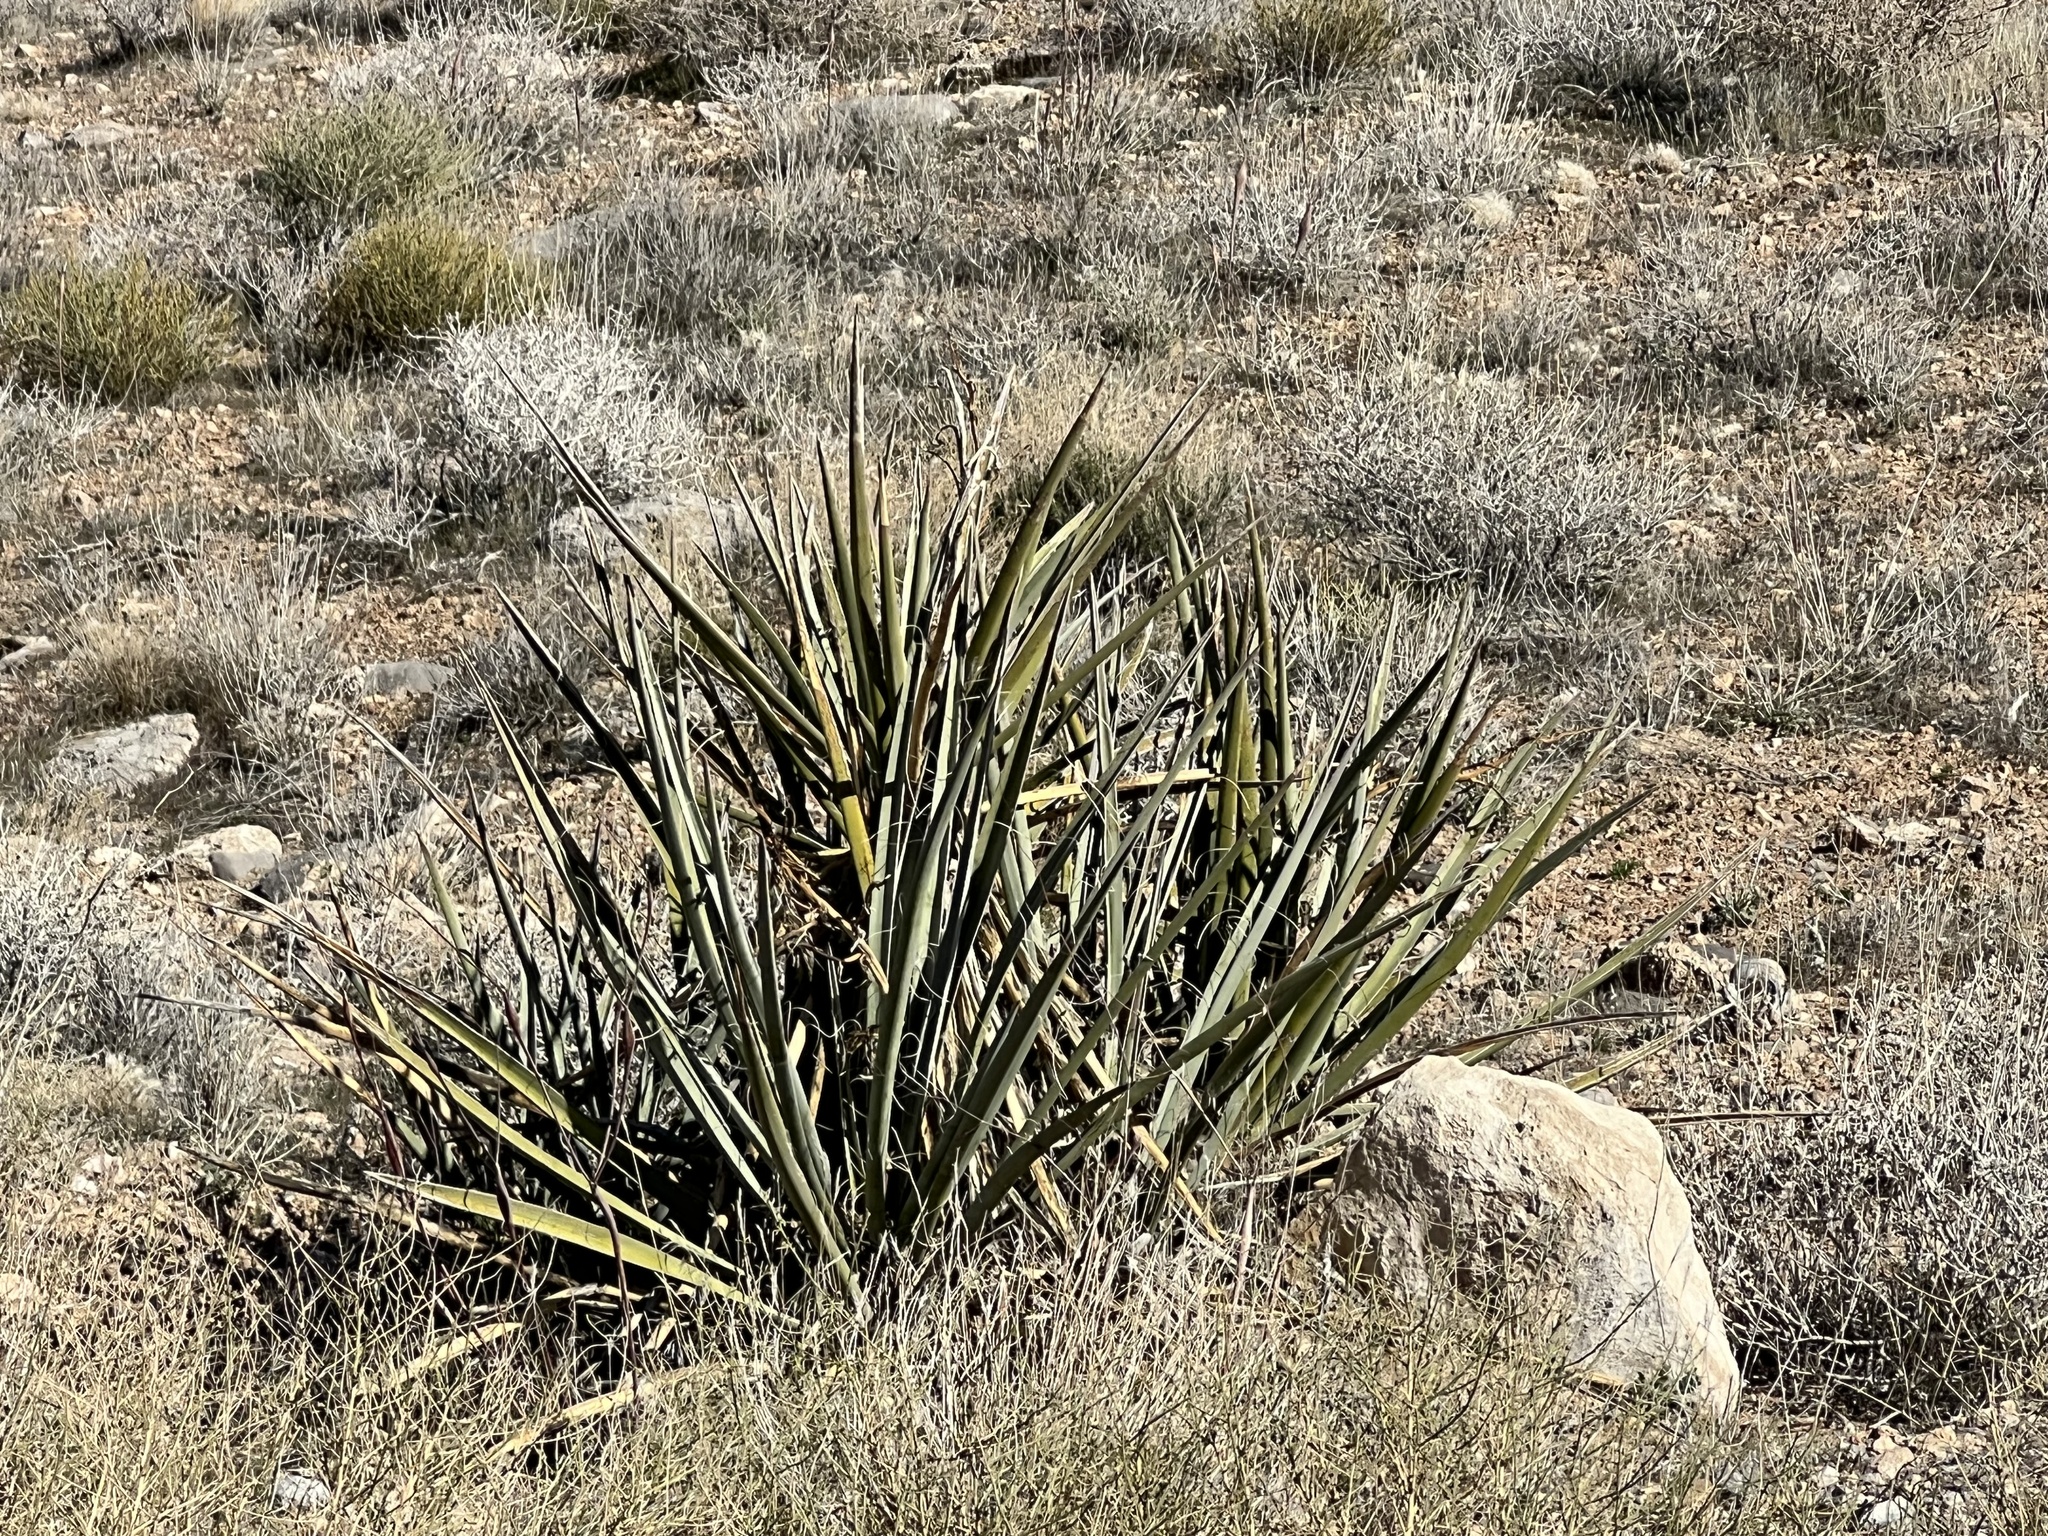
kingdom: Plantae
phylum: Tracheophyta
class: Liliopsida
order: Asparagales
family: Asparagaceae
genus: Yucca
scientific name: Yucca baccata
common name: Banana yucca
